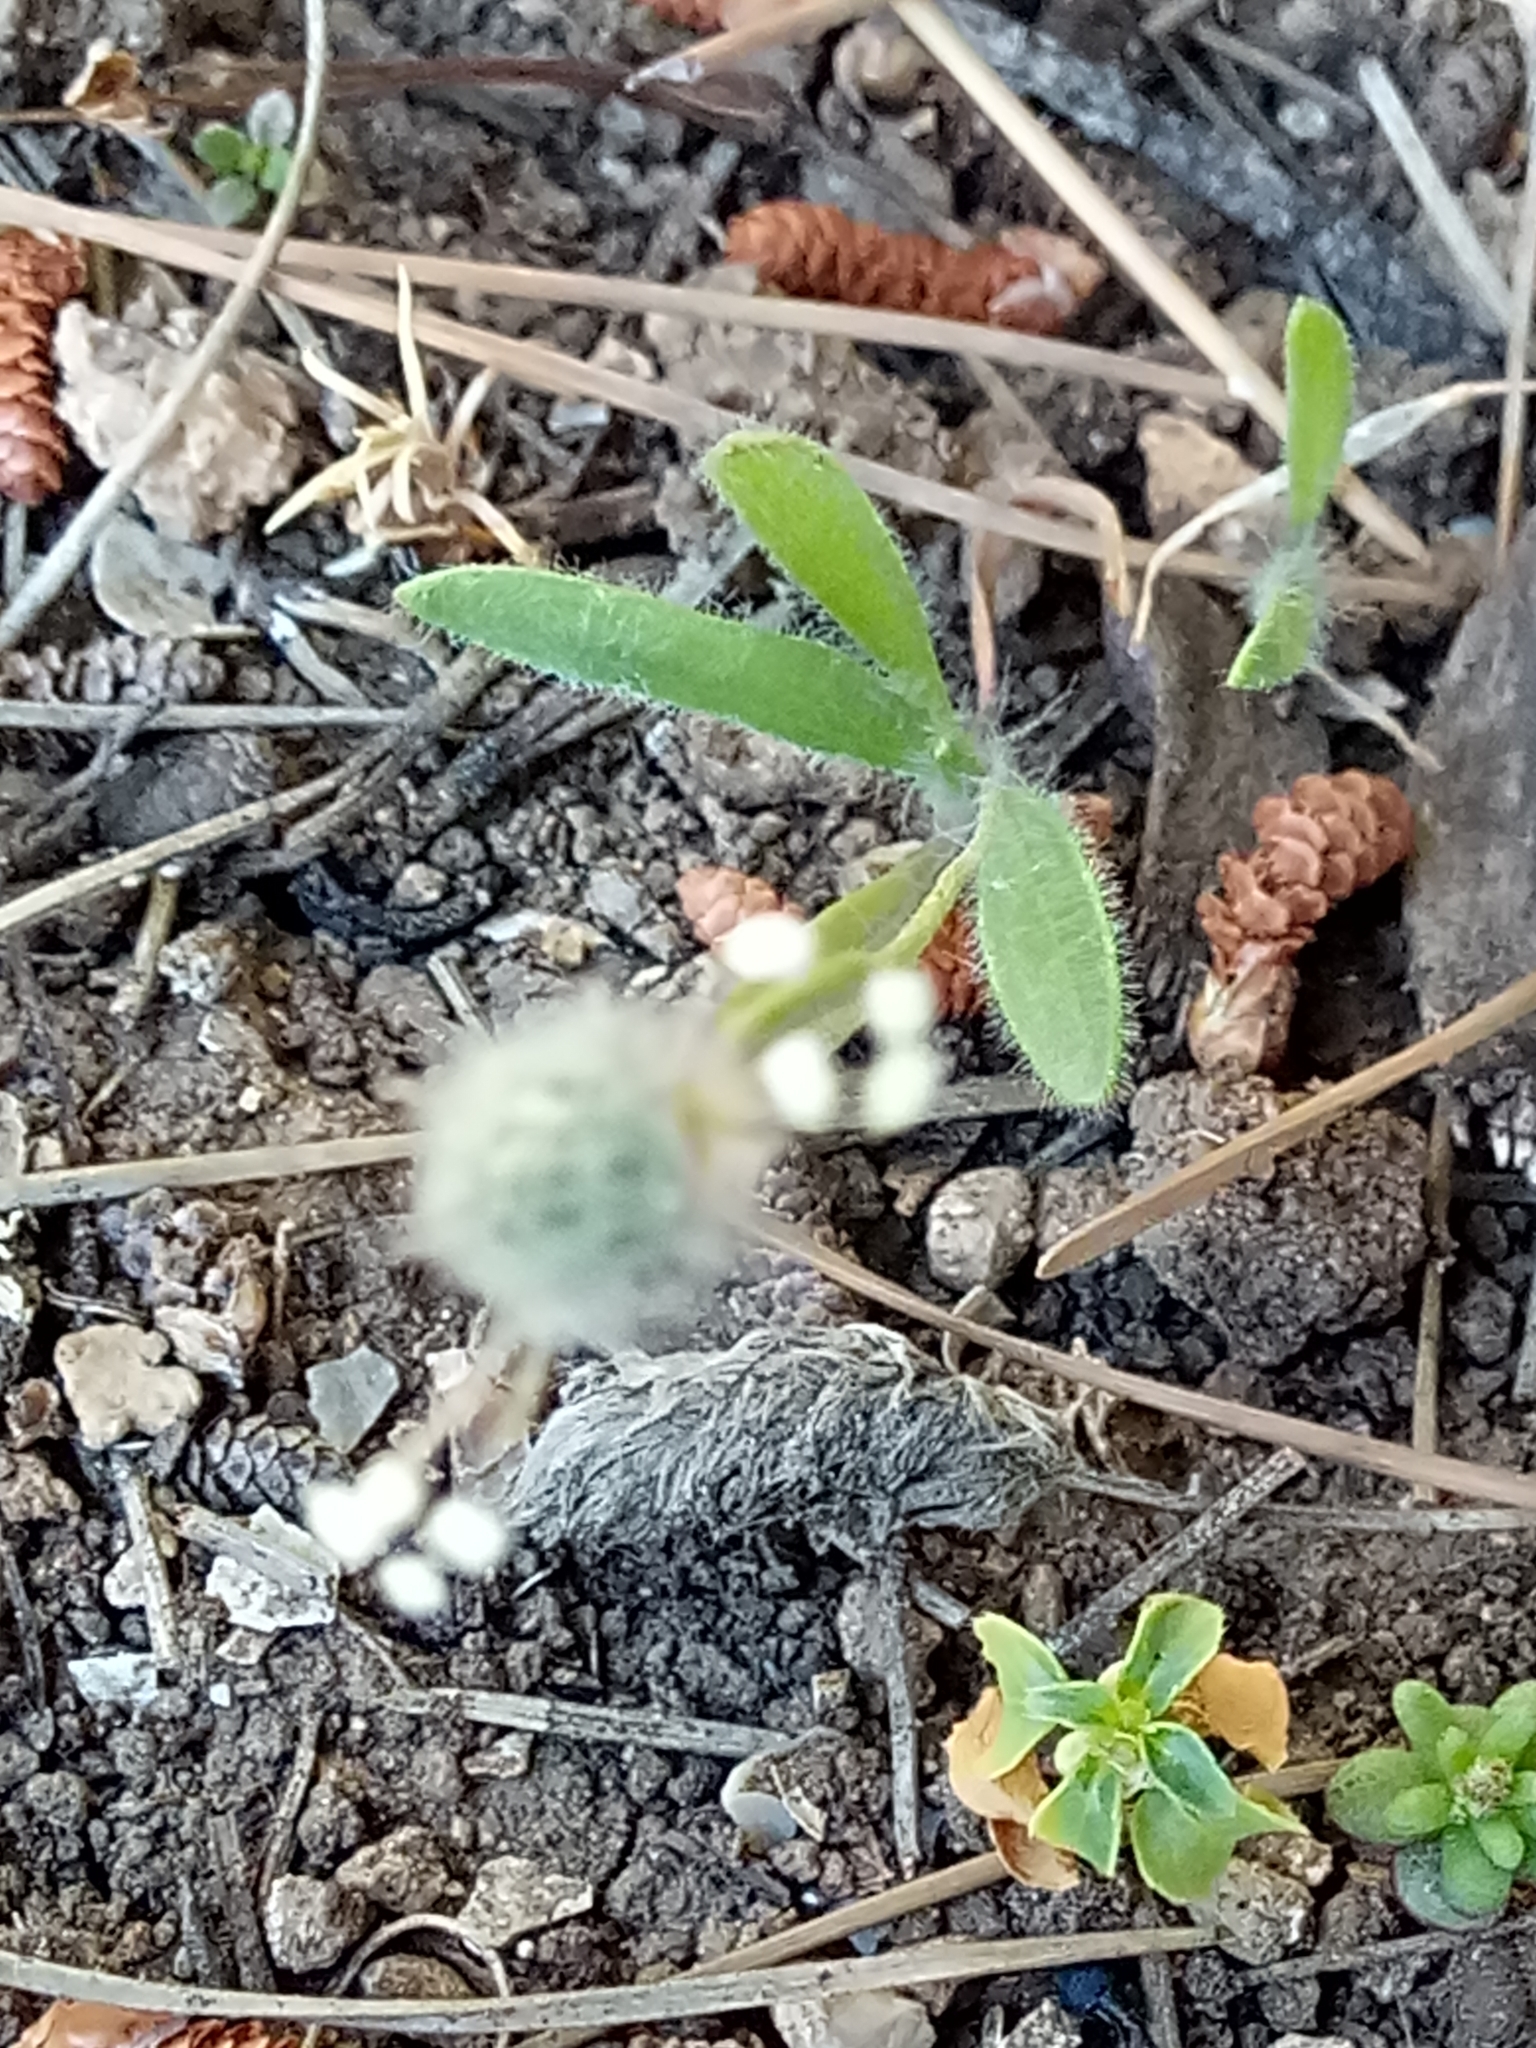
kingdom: Plantae
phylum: Tracheophyta
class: Magnoliopsida
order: Lamiales
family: Plantaginaceae
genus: Plantago
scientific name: Plantago lagopus
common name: Hare-foot plantain
